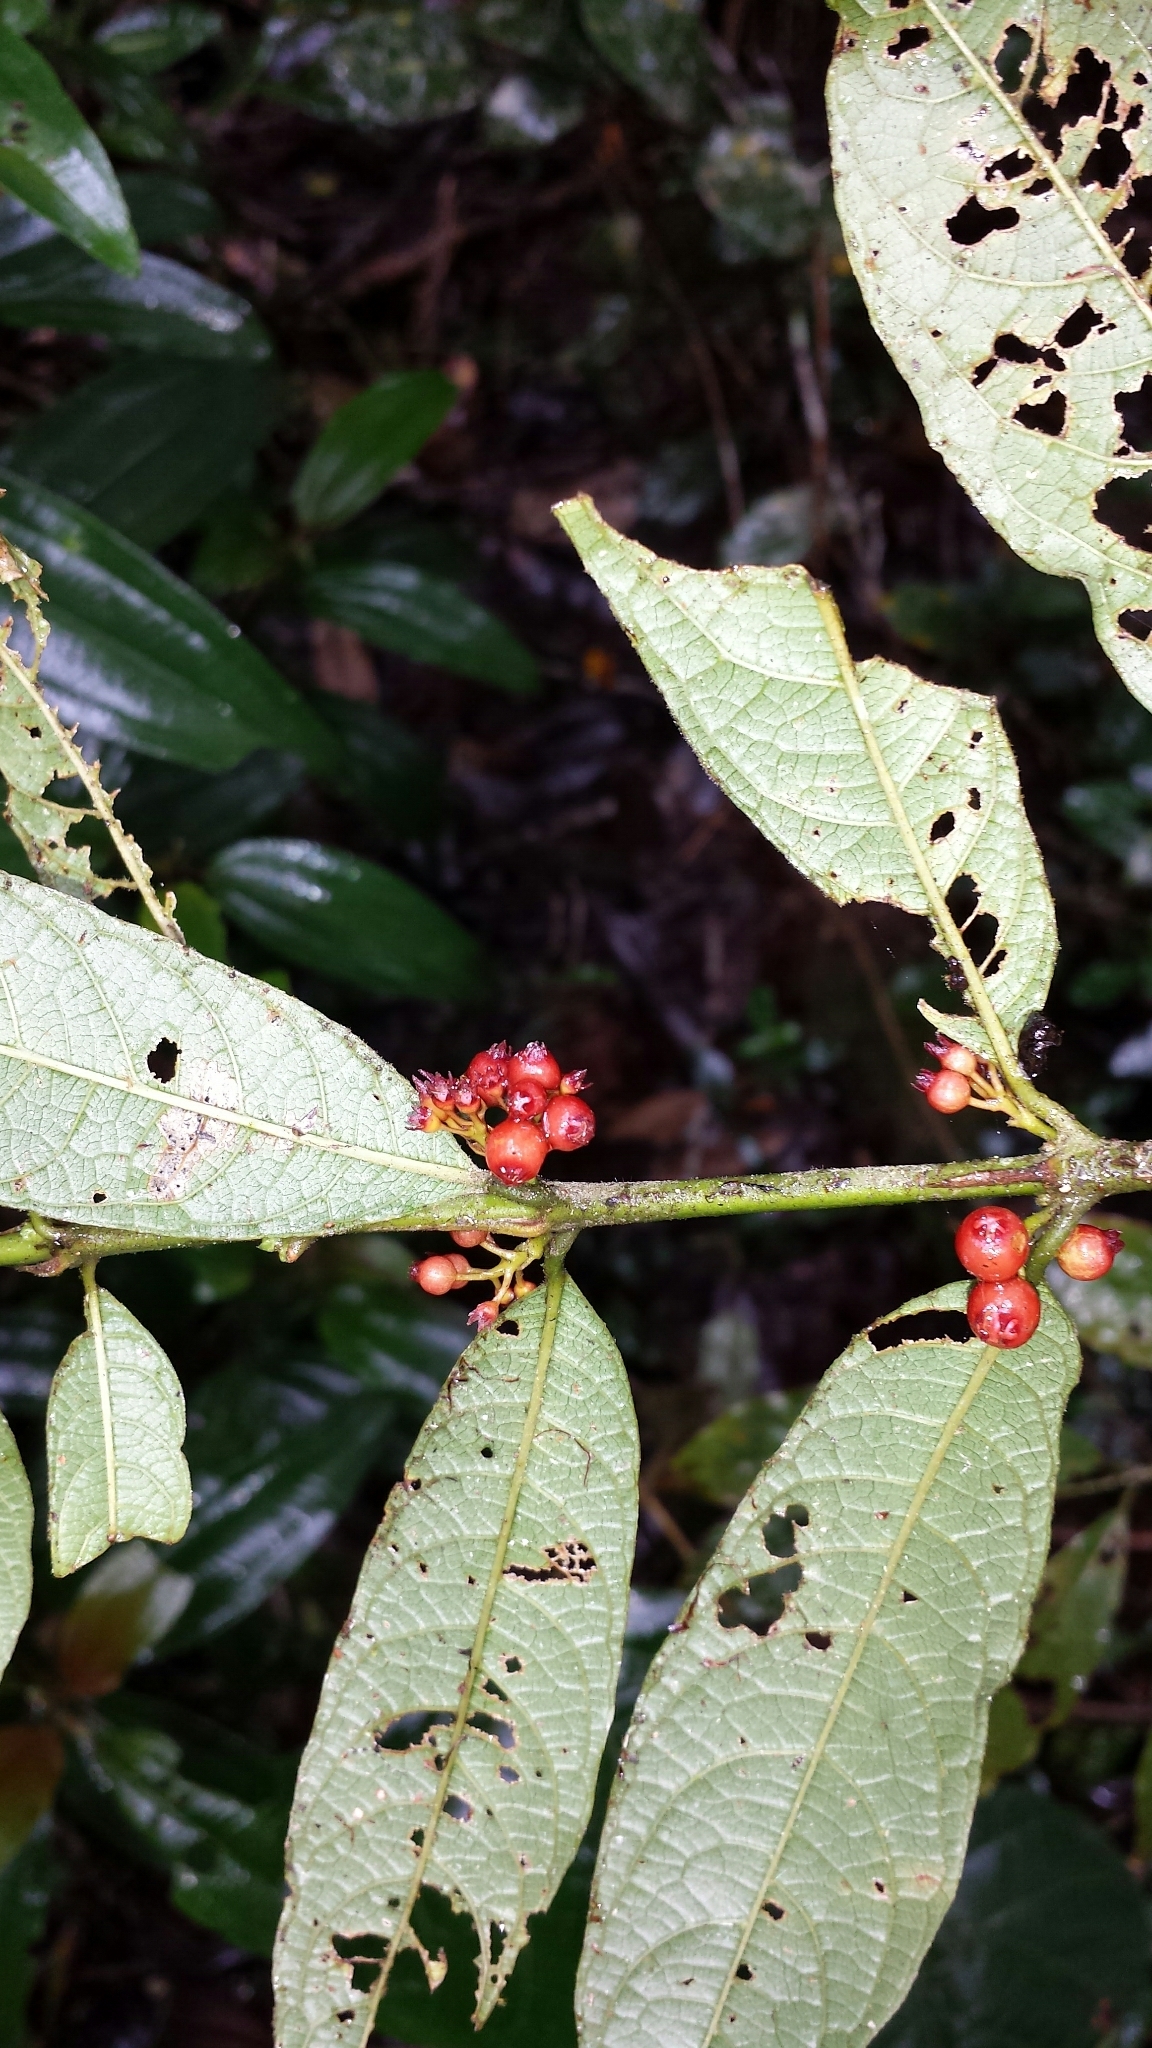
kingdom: Plantae
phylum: Tracheophyta
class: Magnoliopsida
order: Gentianales
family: Rubiaceae
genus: Pauridiantha
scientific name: Pauridiantha paucinervis
